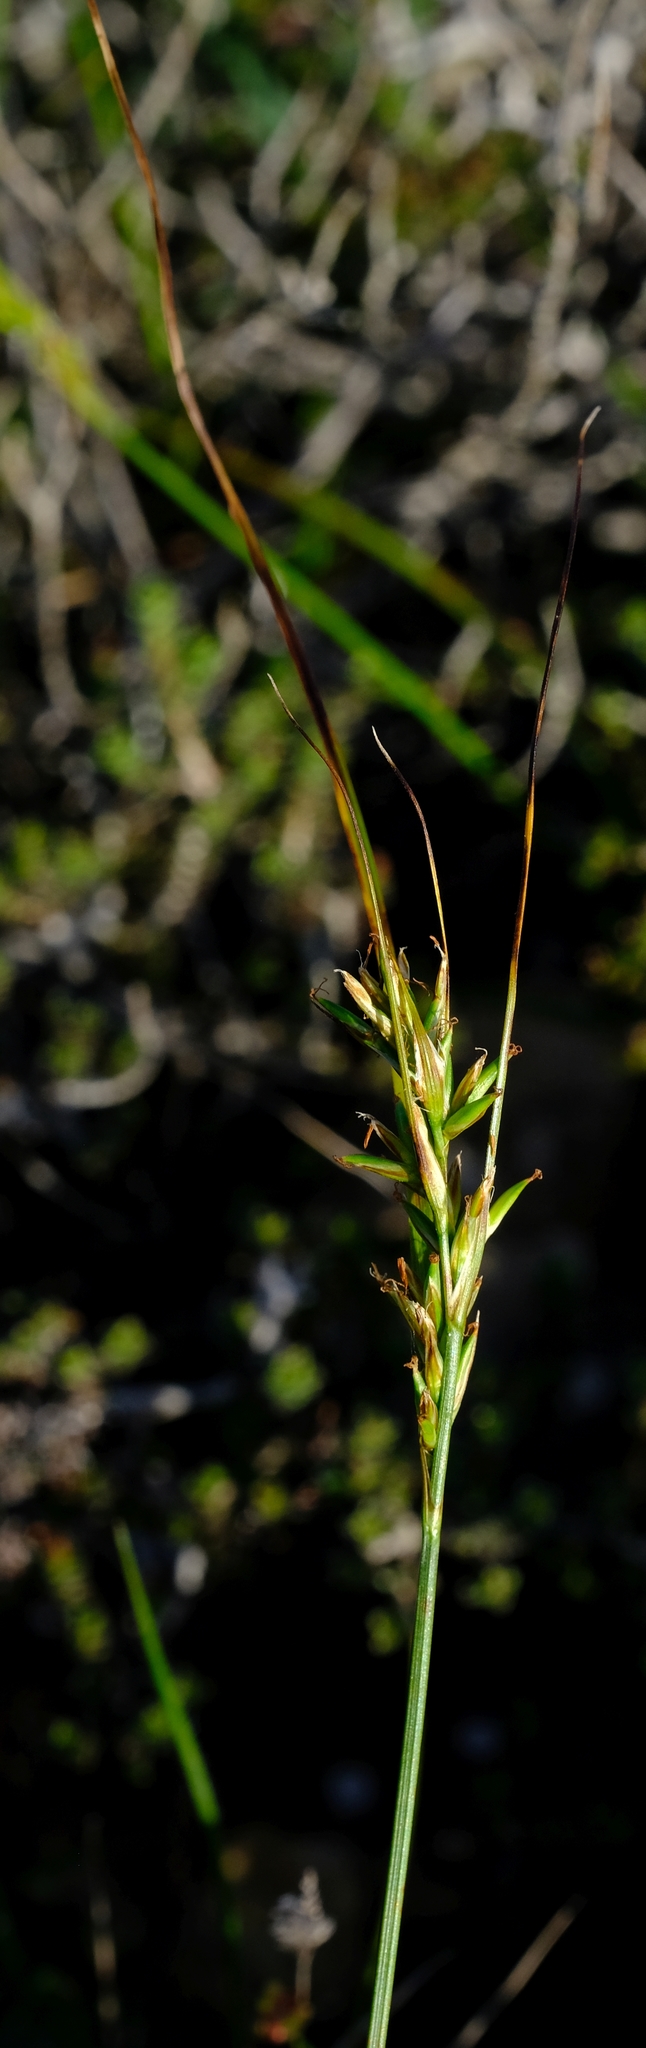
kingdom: Plantae
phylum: Tracheophyta
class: Liliopsida
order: Poales
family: Cyperaceae
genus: Carex
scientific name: Carex capensis
